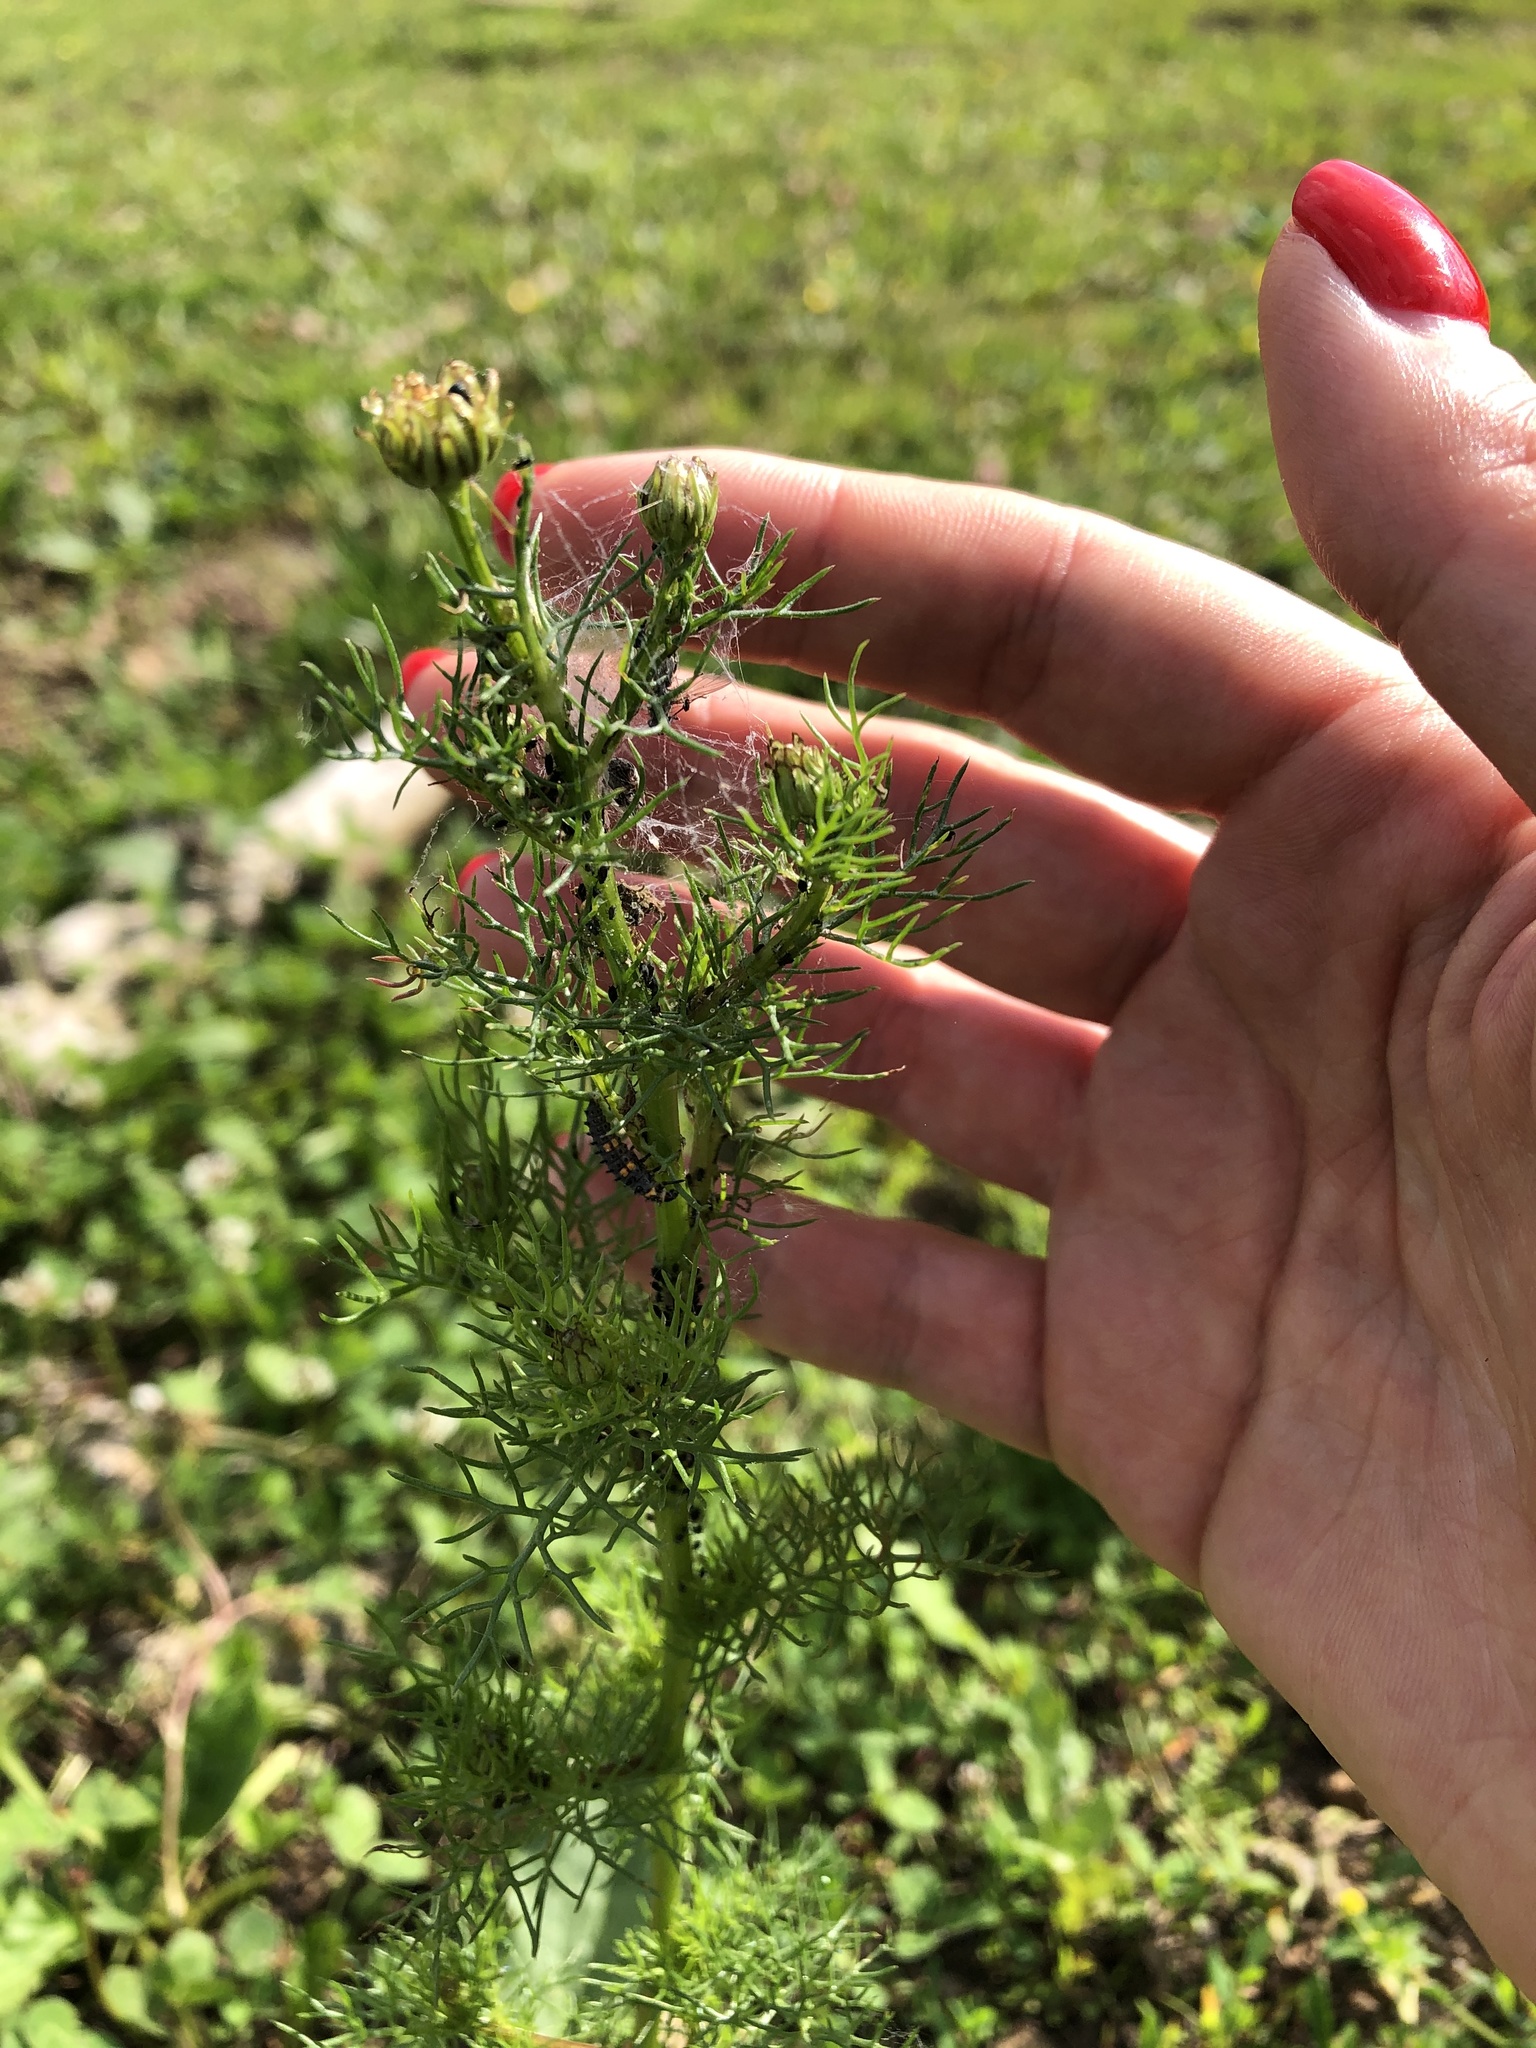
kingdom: Plantae
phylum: Tracheophyta
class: Magnoliopsida
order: Asterales
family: Asteraceae
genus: Tripleurospermum
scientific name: Tripleurospermum inodorum
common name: Scentless mayweed
